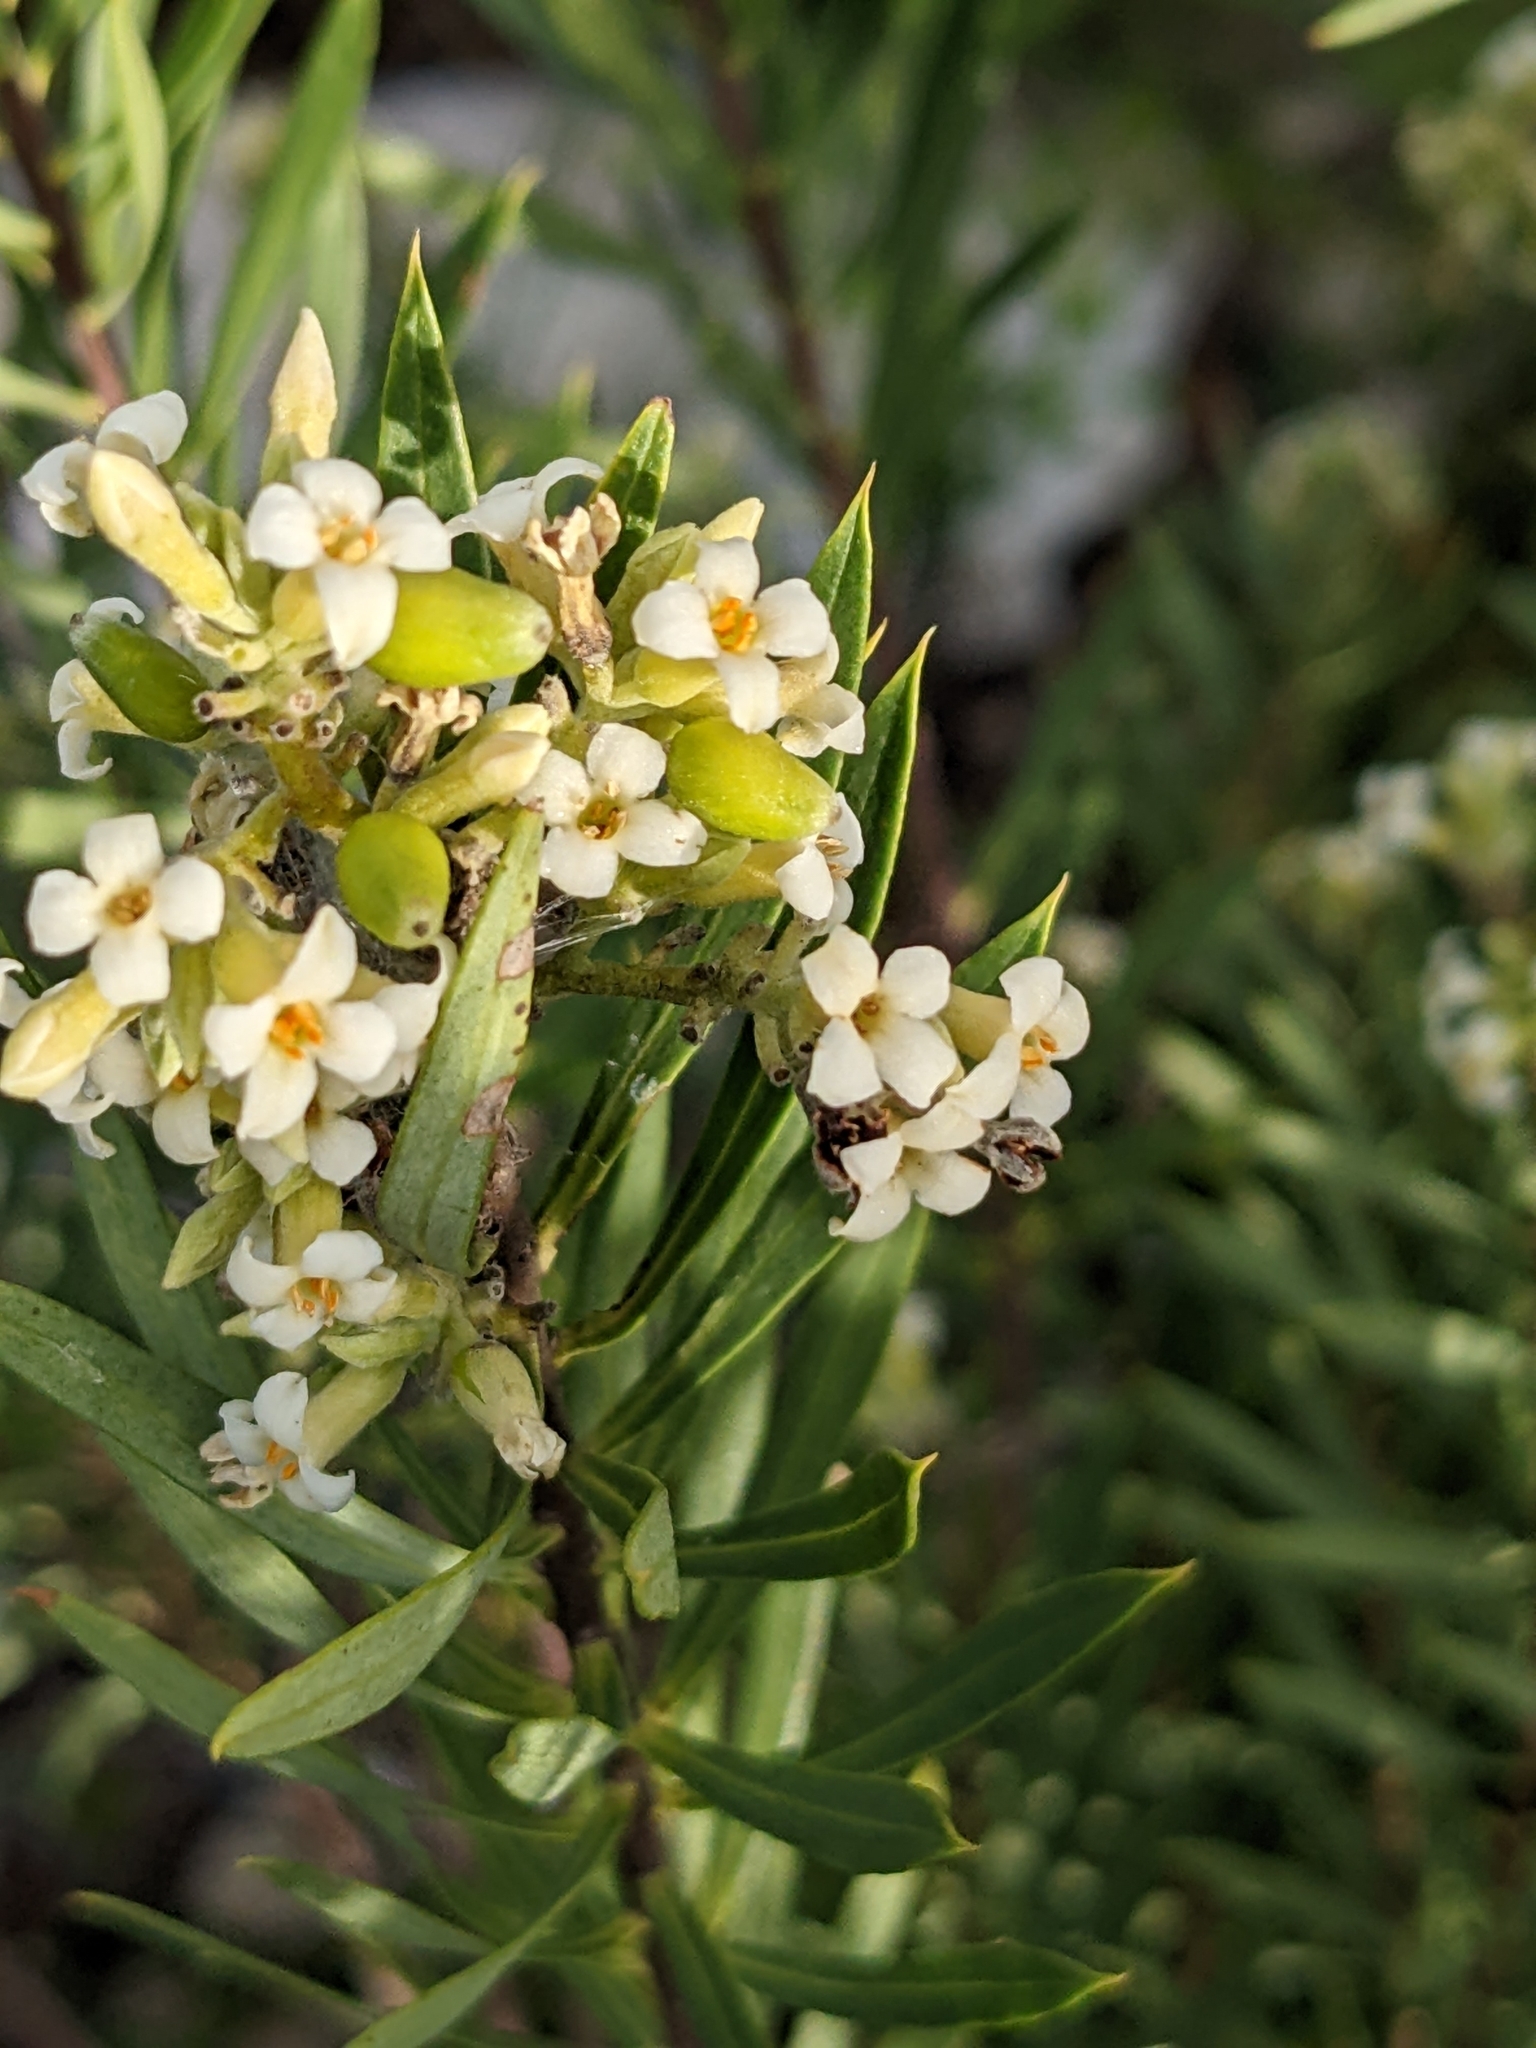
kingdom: Plantae
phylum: Tracheophyta
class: Magnoliopsida
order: Malvales
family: Thymelaeaceae
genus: Daphne
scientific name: Daphne gnidium
